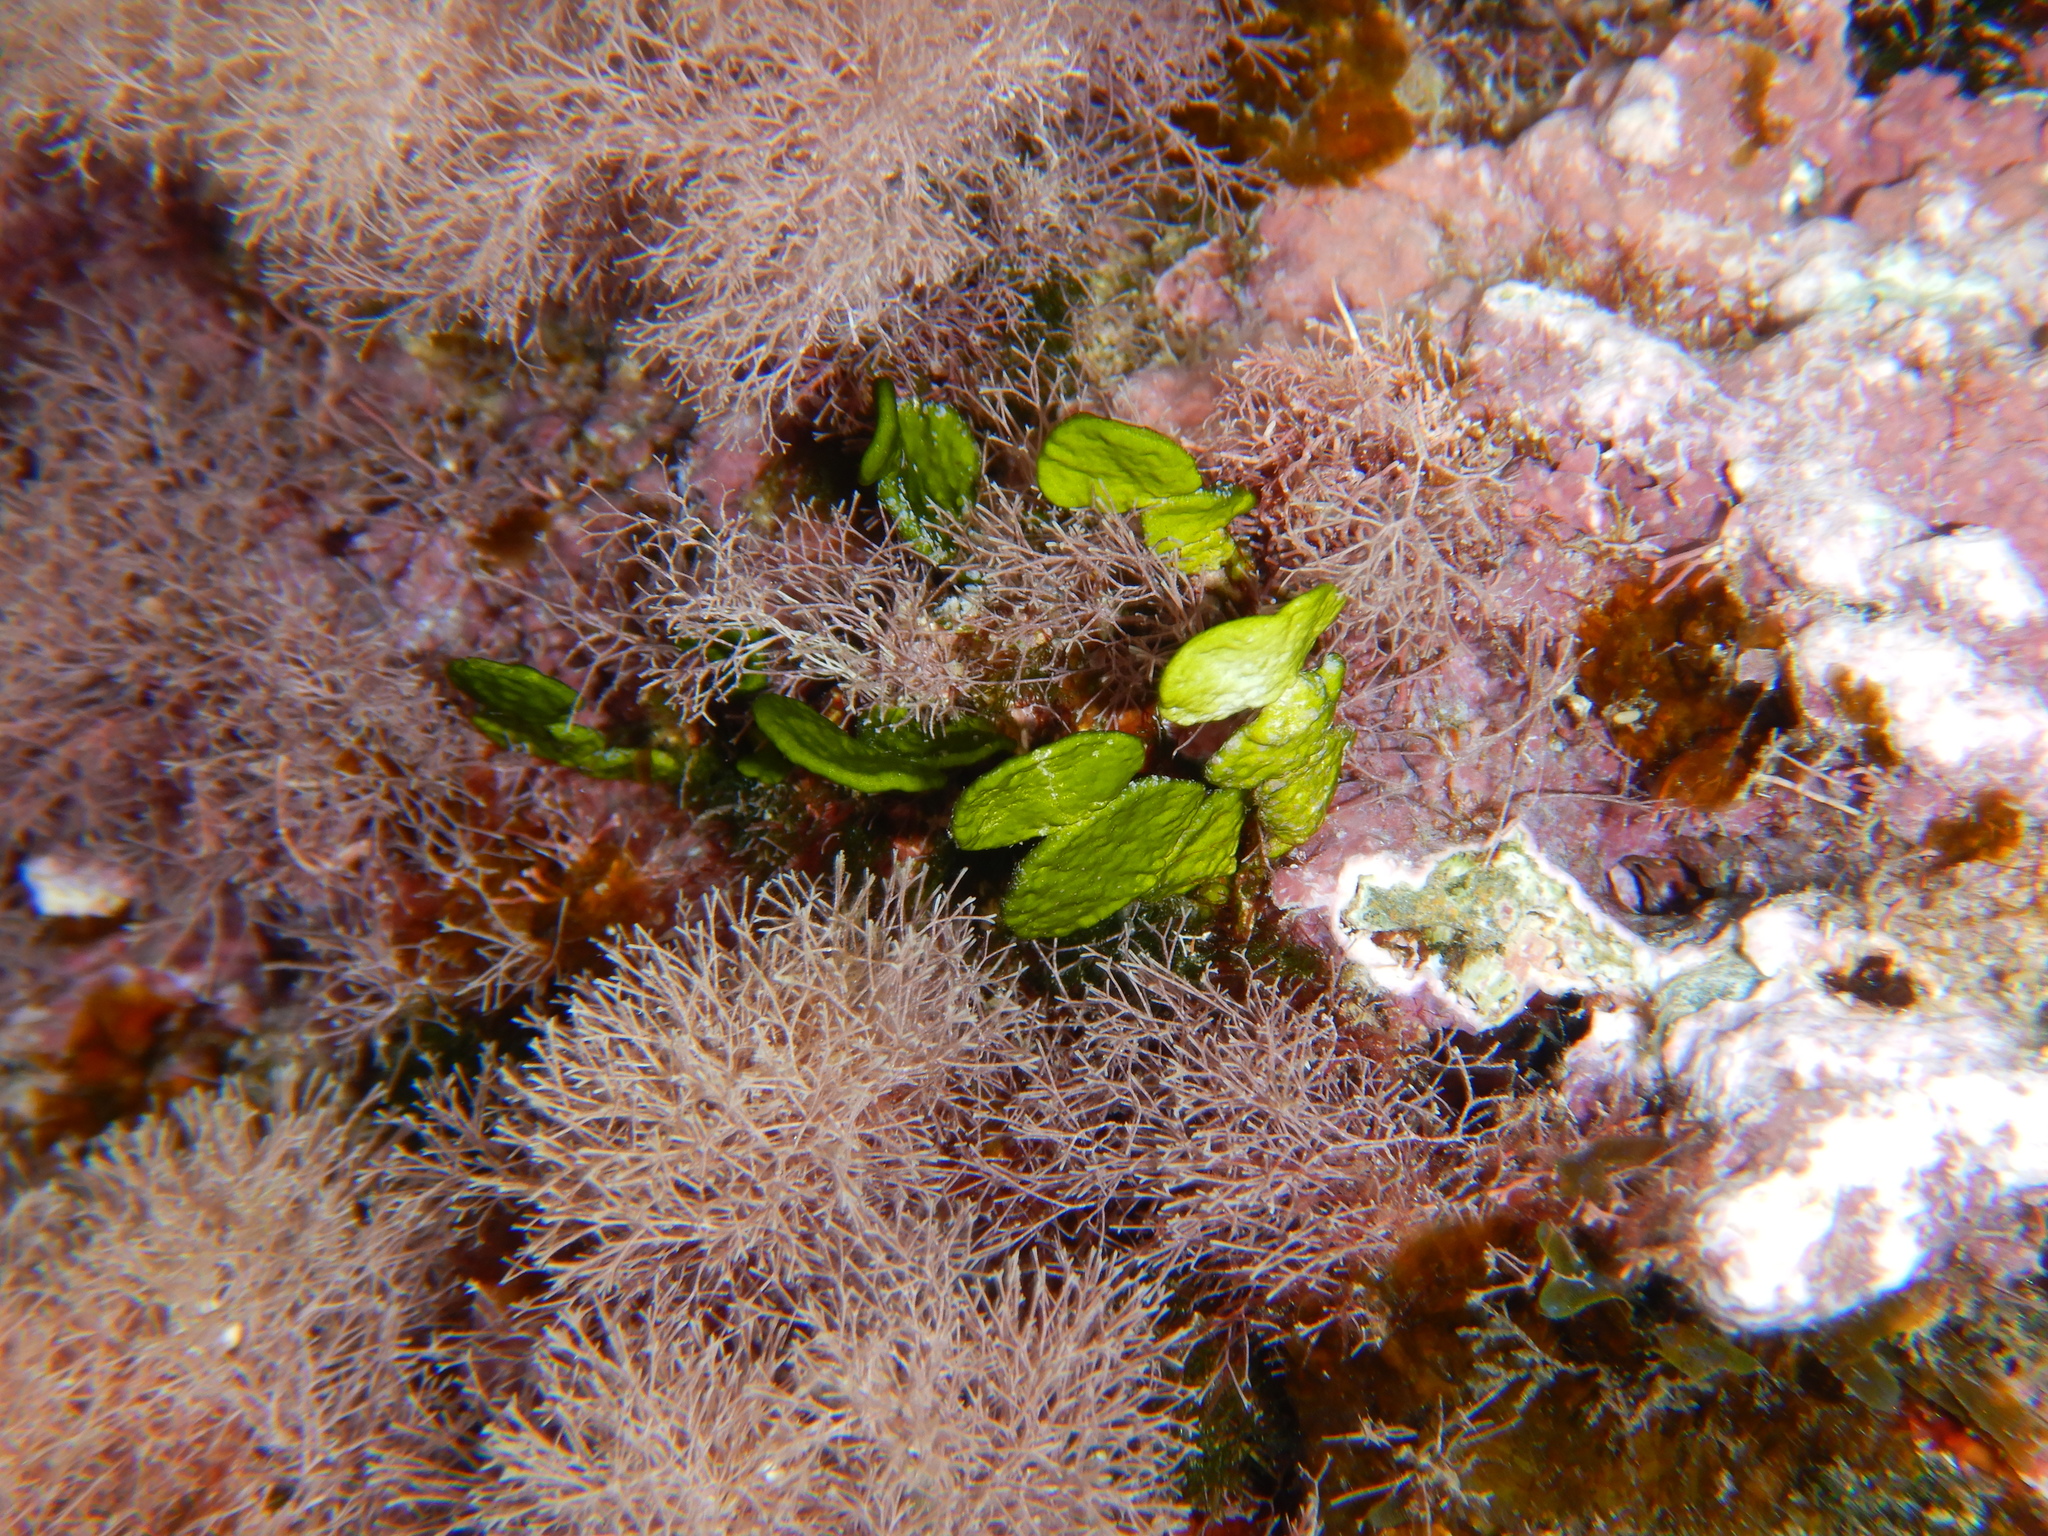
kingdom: Plantae
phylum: Chlorophyta
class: Ulvophyceae
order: Bryopsidales
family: Halimedaceae
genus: Halimeda
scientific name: Halimeda tuna
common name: Stalked lettuce leaf algae
